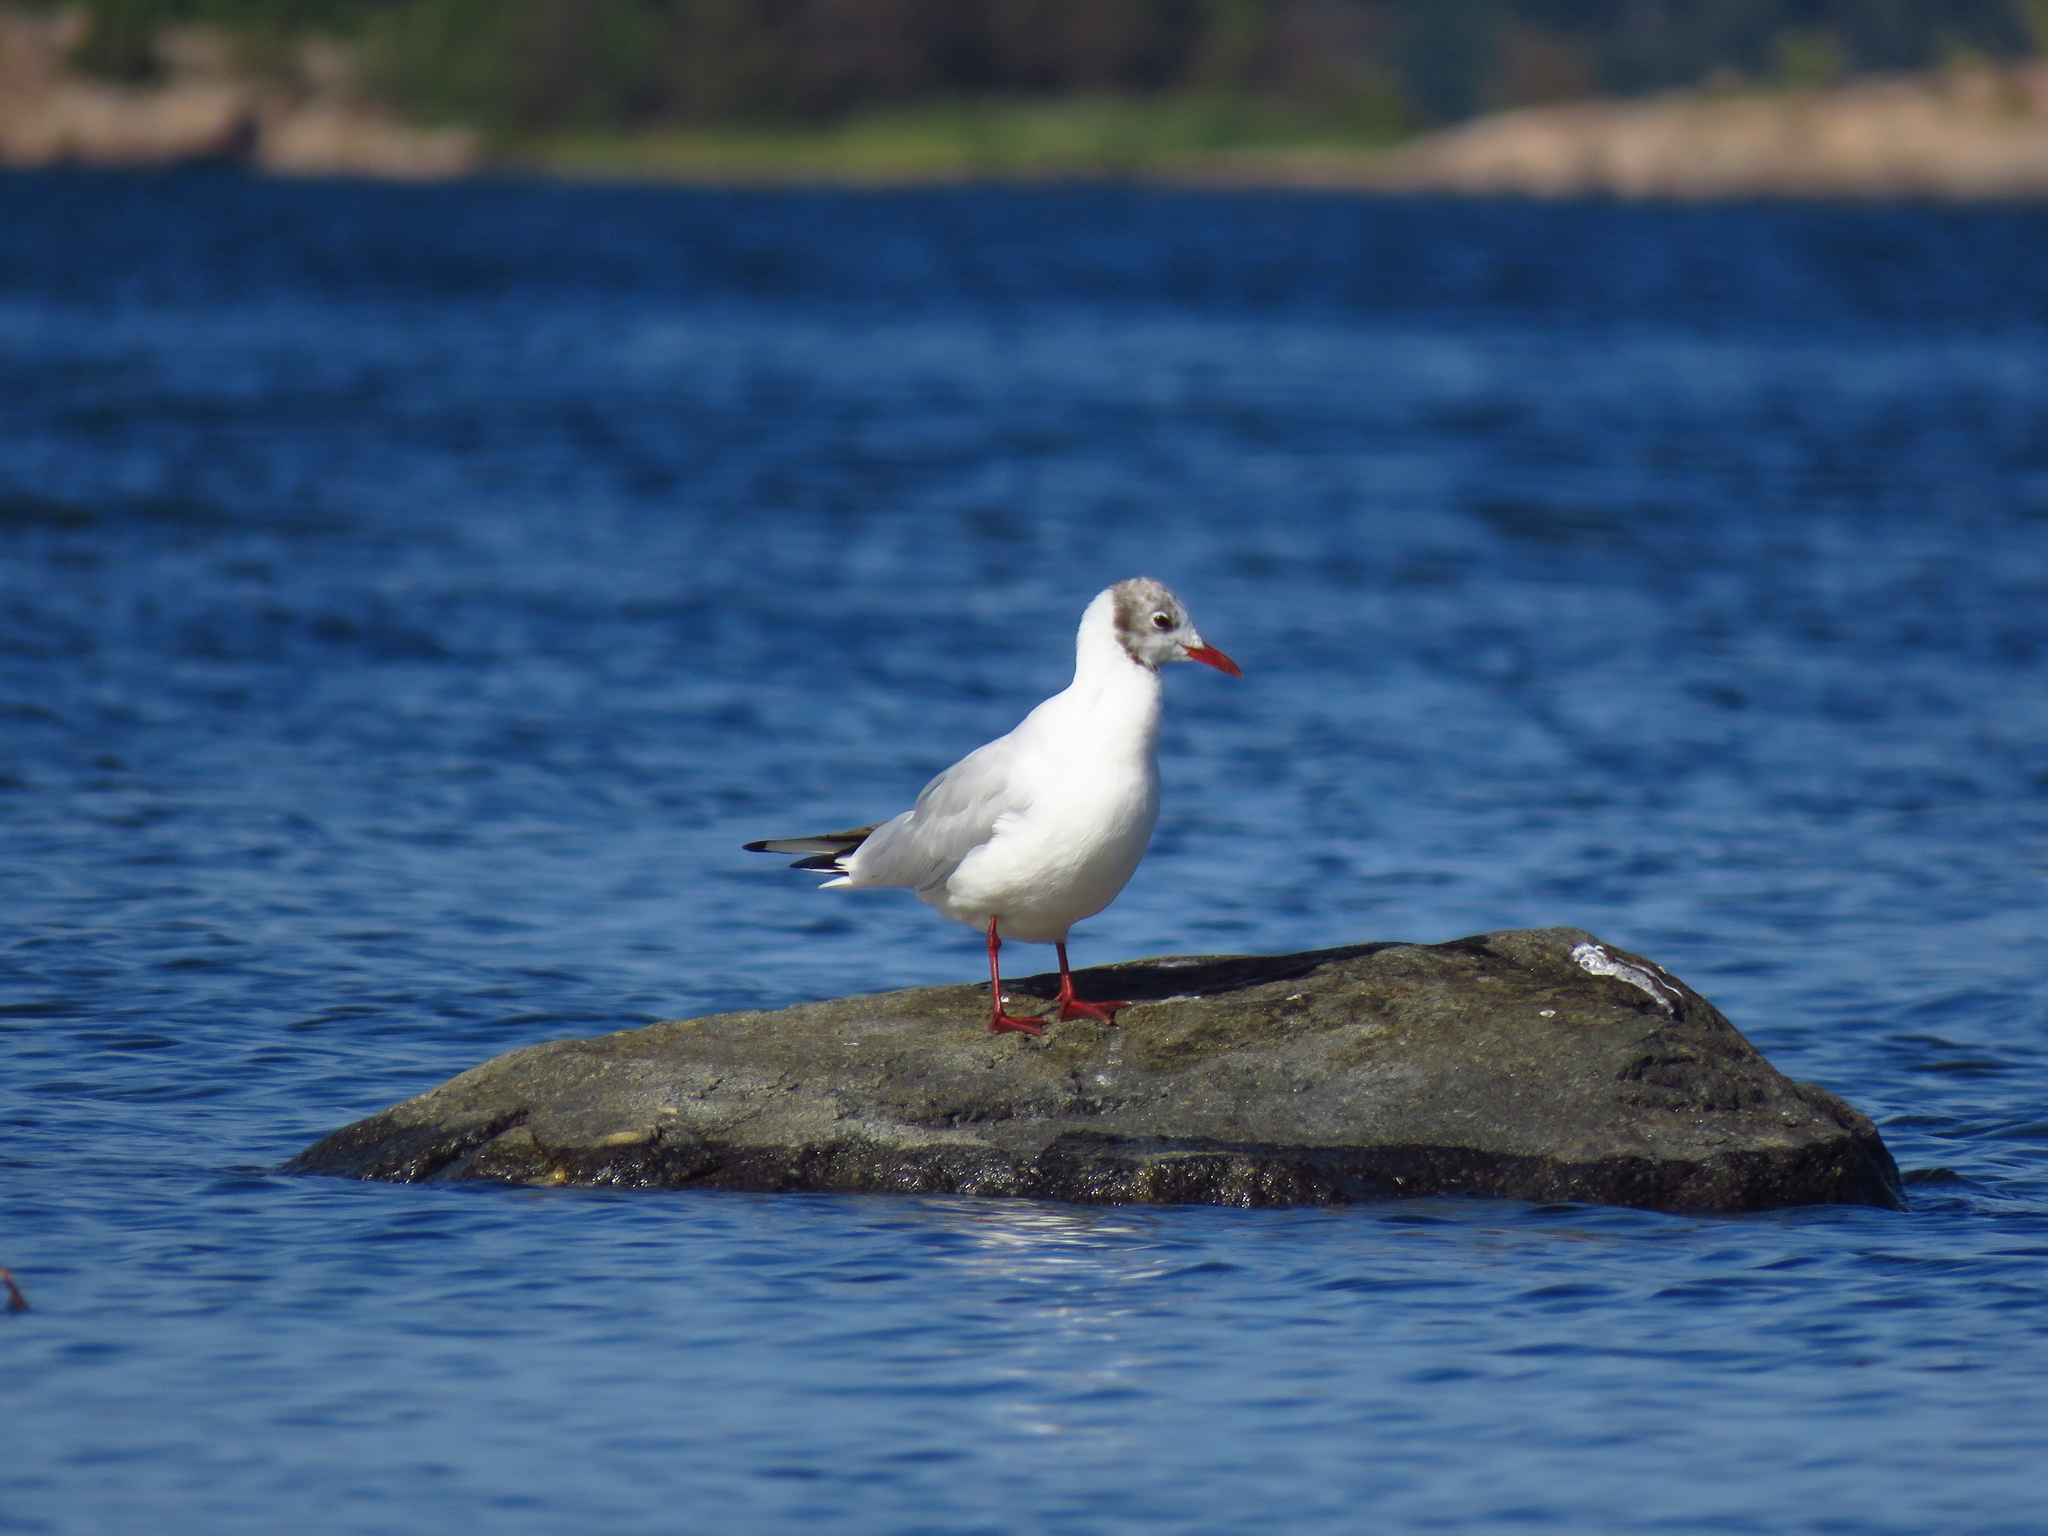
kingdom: Animalia
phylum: Chordata
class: Aves
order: Charadriiformes
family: Laridae
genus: Chroicocephalus
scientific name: Chroicocephalus ridibundus
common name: Black-headed gull
